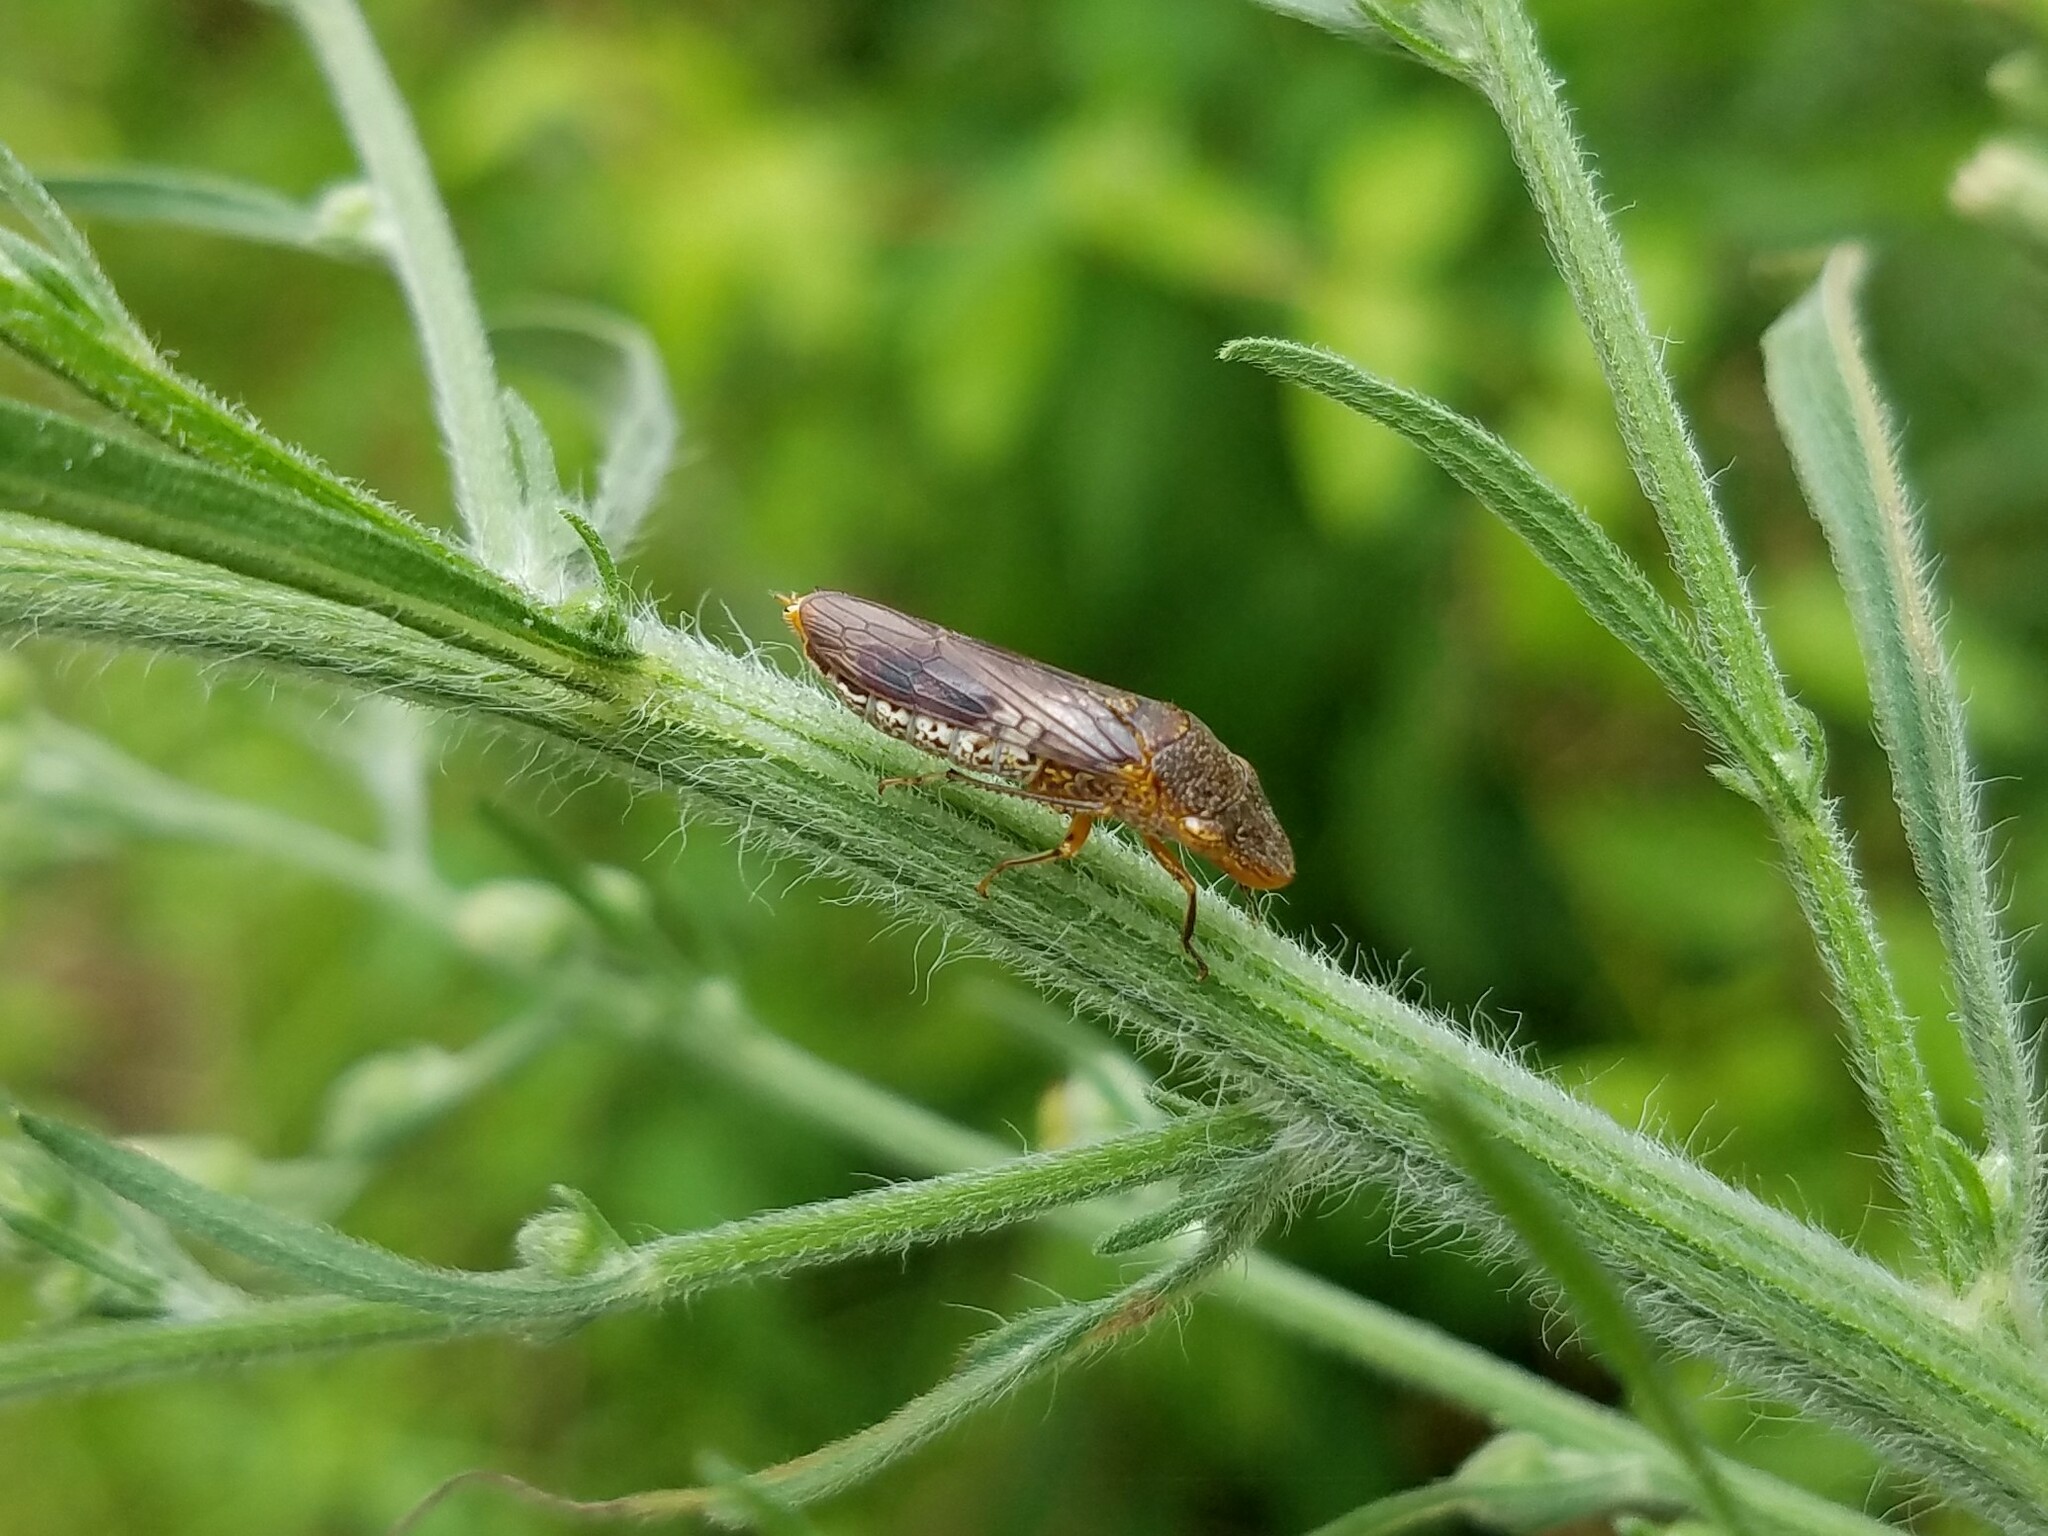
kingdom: Animalia
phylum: Arthropoda
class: Insecta
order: Hemiptera
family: Cicadellidae
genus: Homalodisca
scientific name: Homalodisca vitripennis
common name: Glassy-winged sharpshooter
